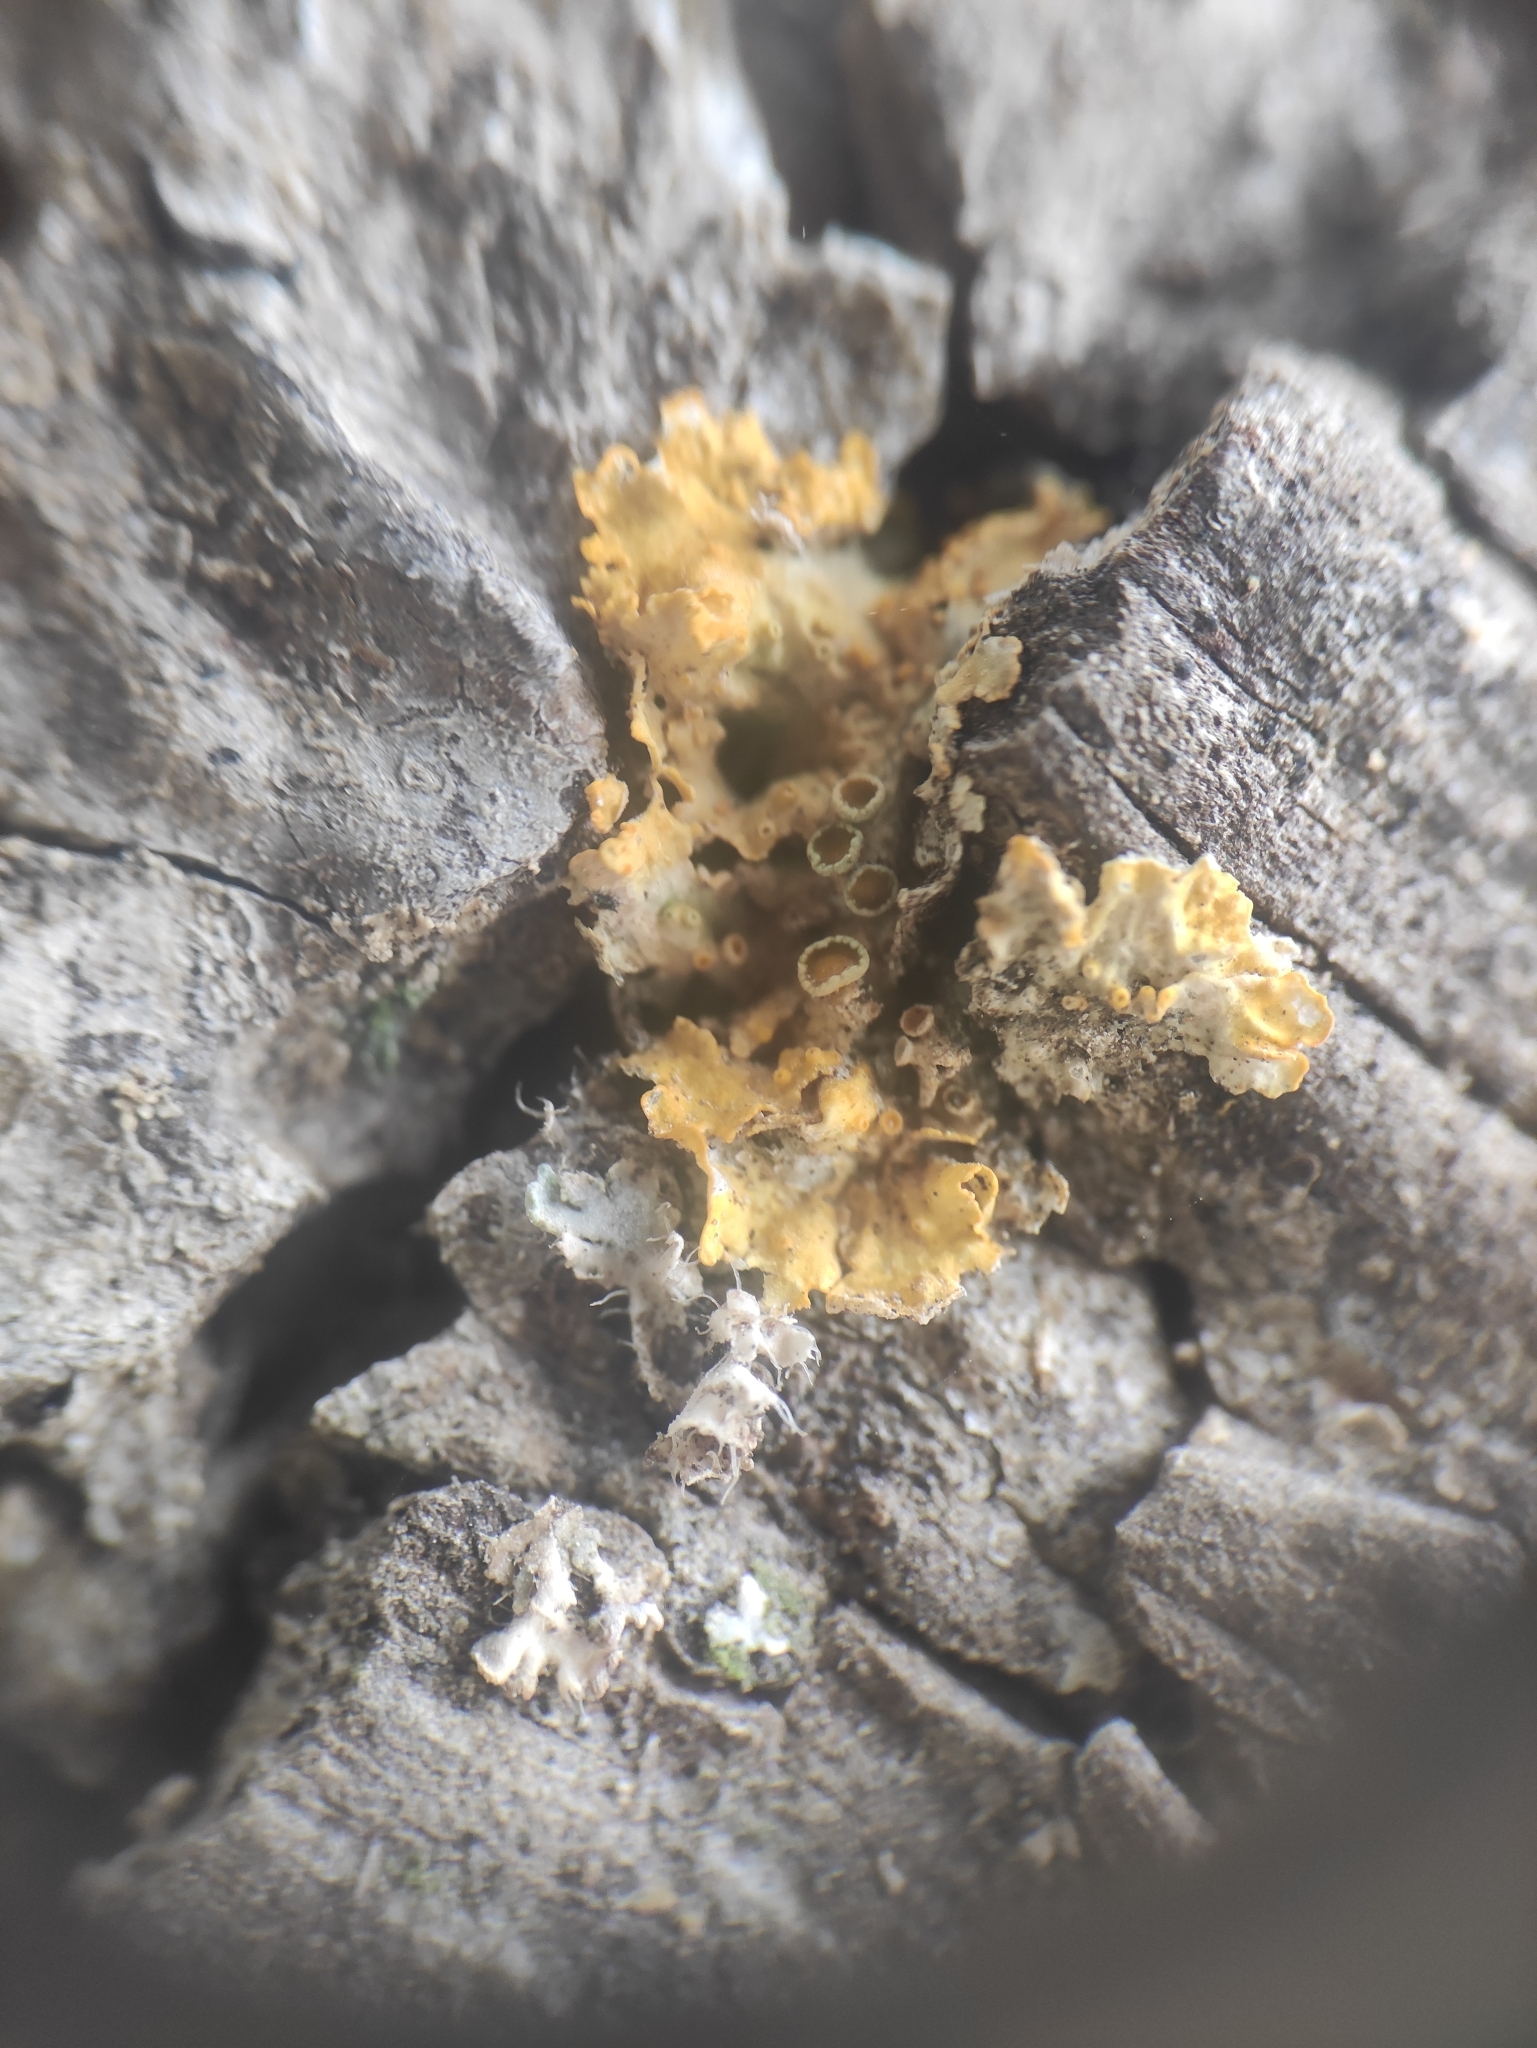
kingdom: Fungi
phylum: Ascomycota
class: Lecanoromycetes
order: Teloschistales
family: Teloschistaceae
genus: Xanthoria
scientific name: Xanthoria parietina
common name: Common orange lichen
